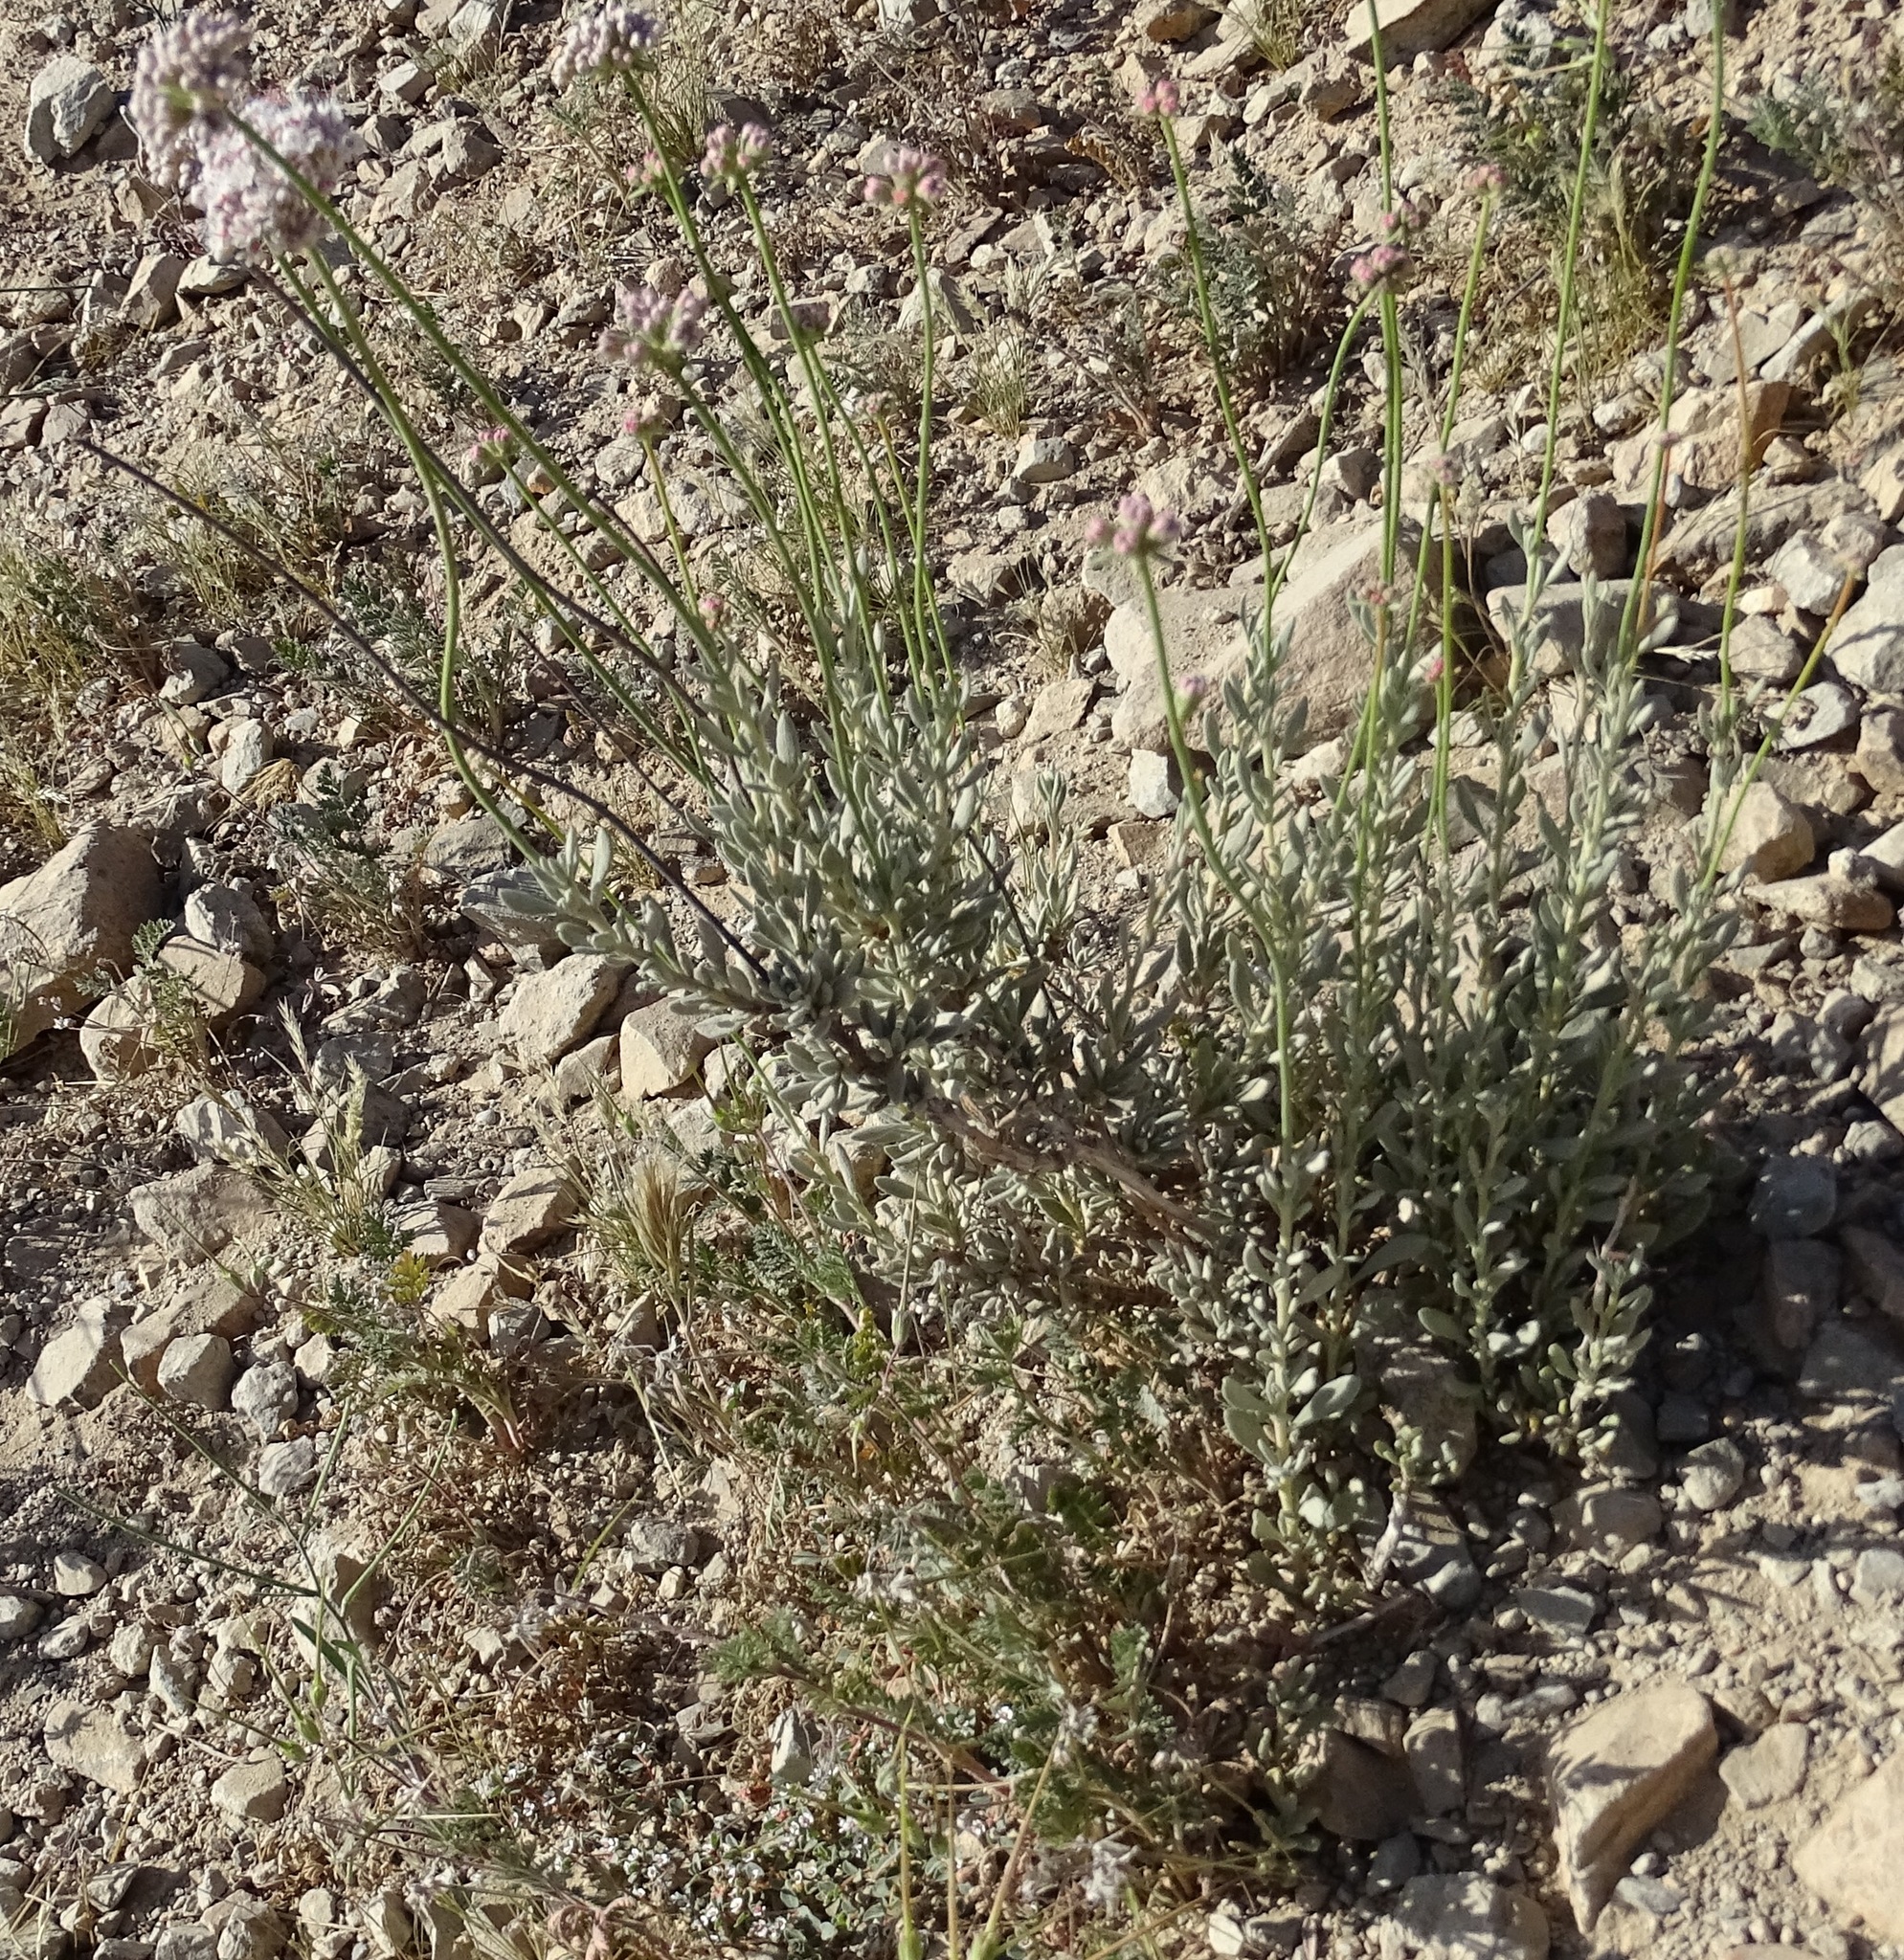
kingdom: Plantae
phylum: Tracheophyta
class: Magnoliopsida
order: Caryophyllales
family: Polygonaceae
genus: Eriogonum
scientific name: Eriogonum fasciculatum
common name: California wild buckwheat
